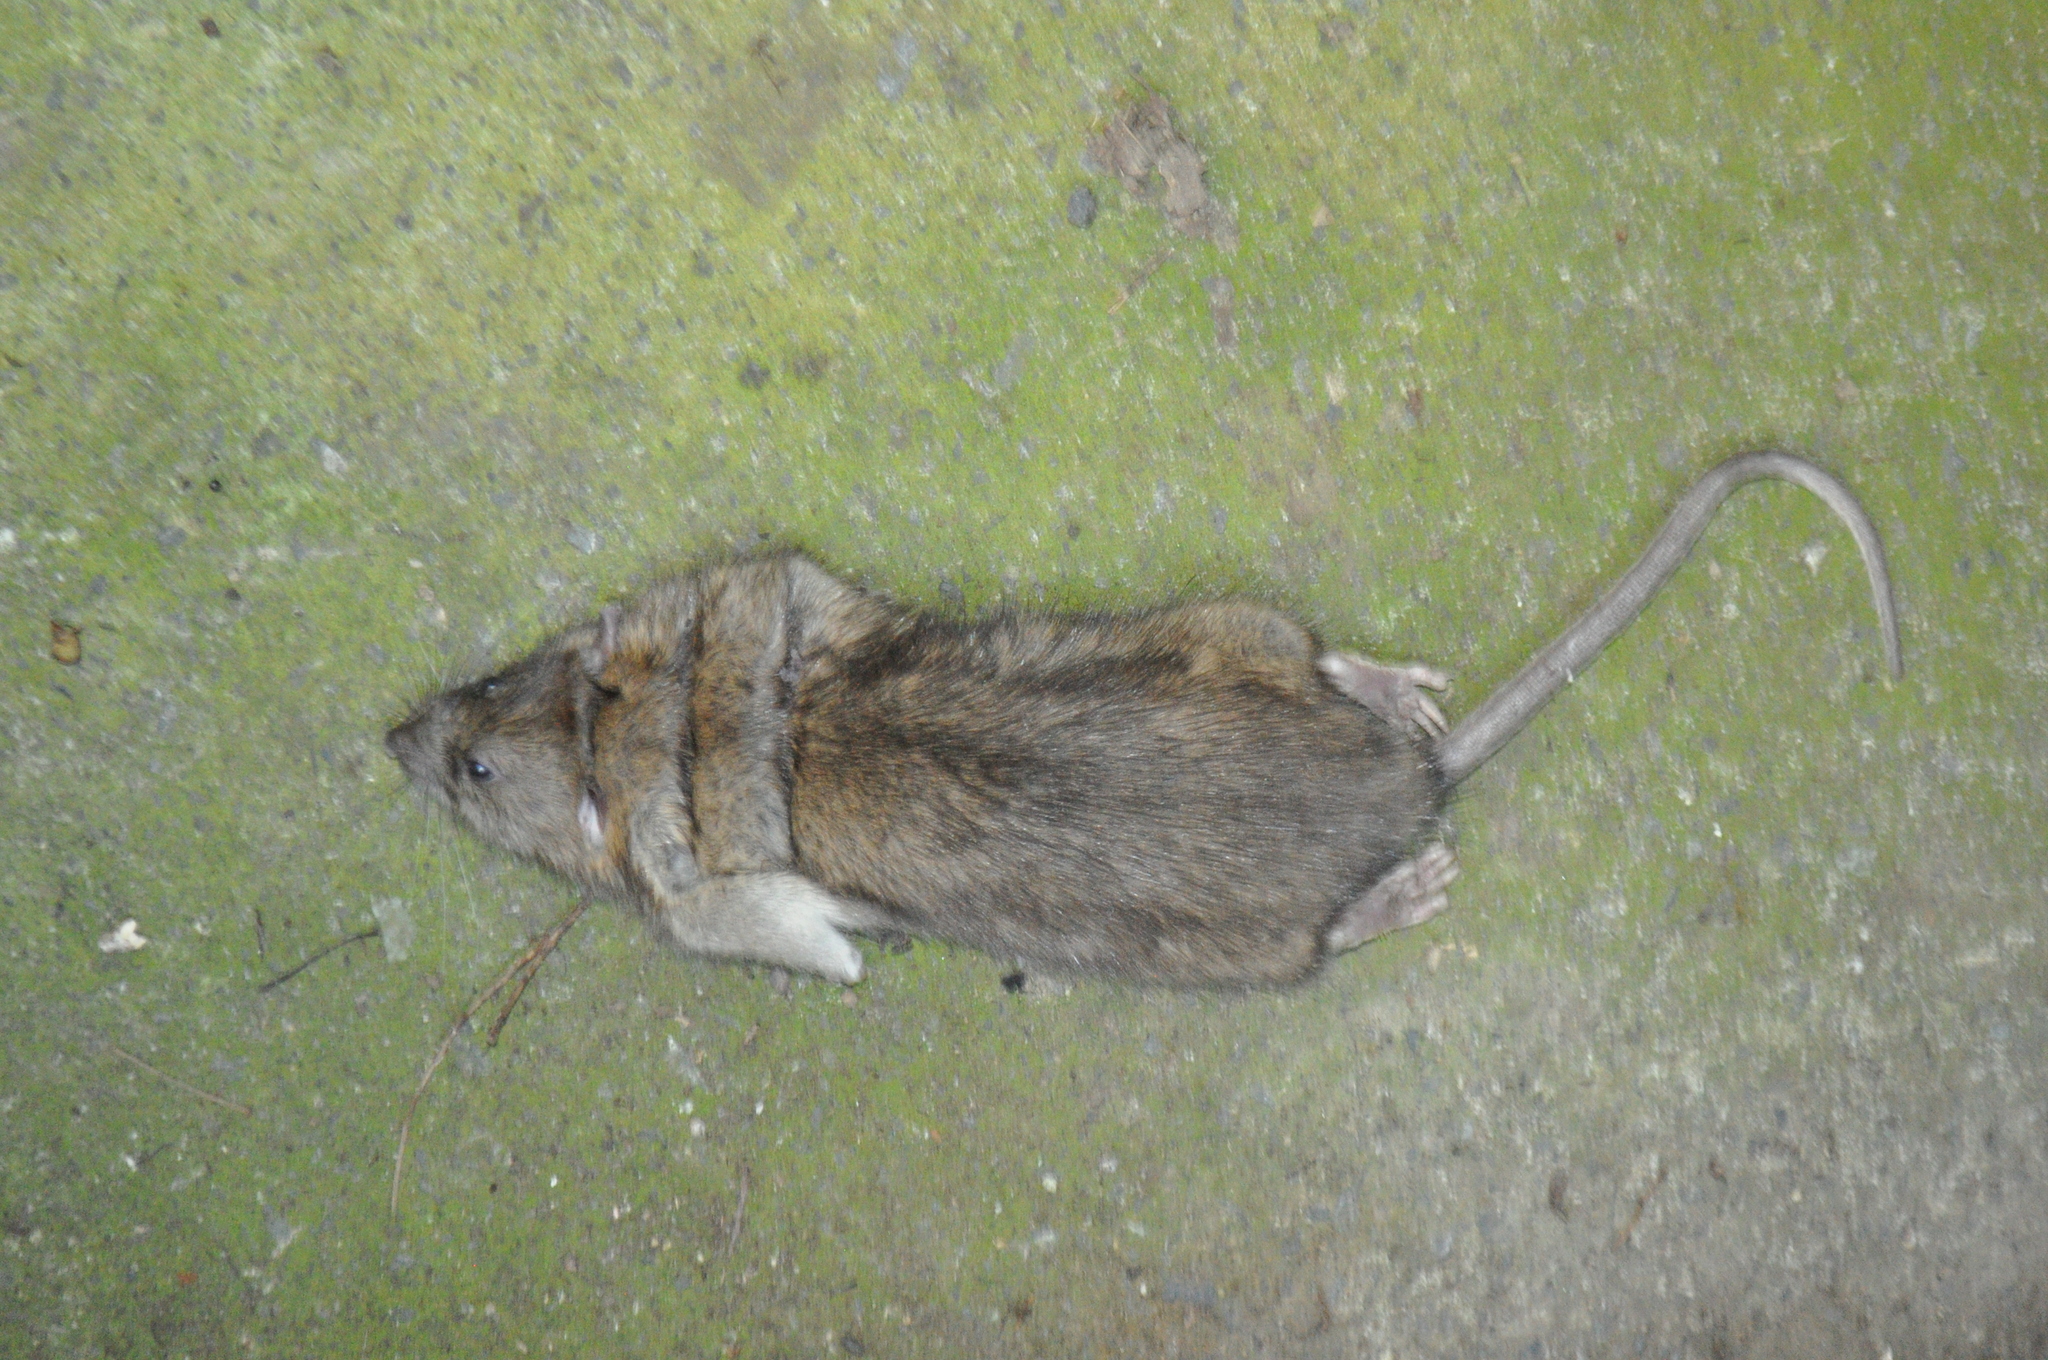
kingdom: Animalia
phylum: Chordata
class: Mammalia
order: Rodentia
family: Muridae
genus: Rattus
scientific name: Rattus norvegicus
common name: Brown rat
